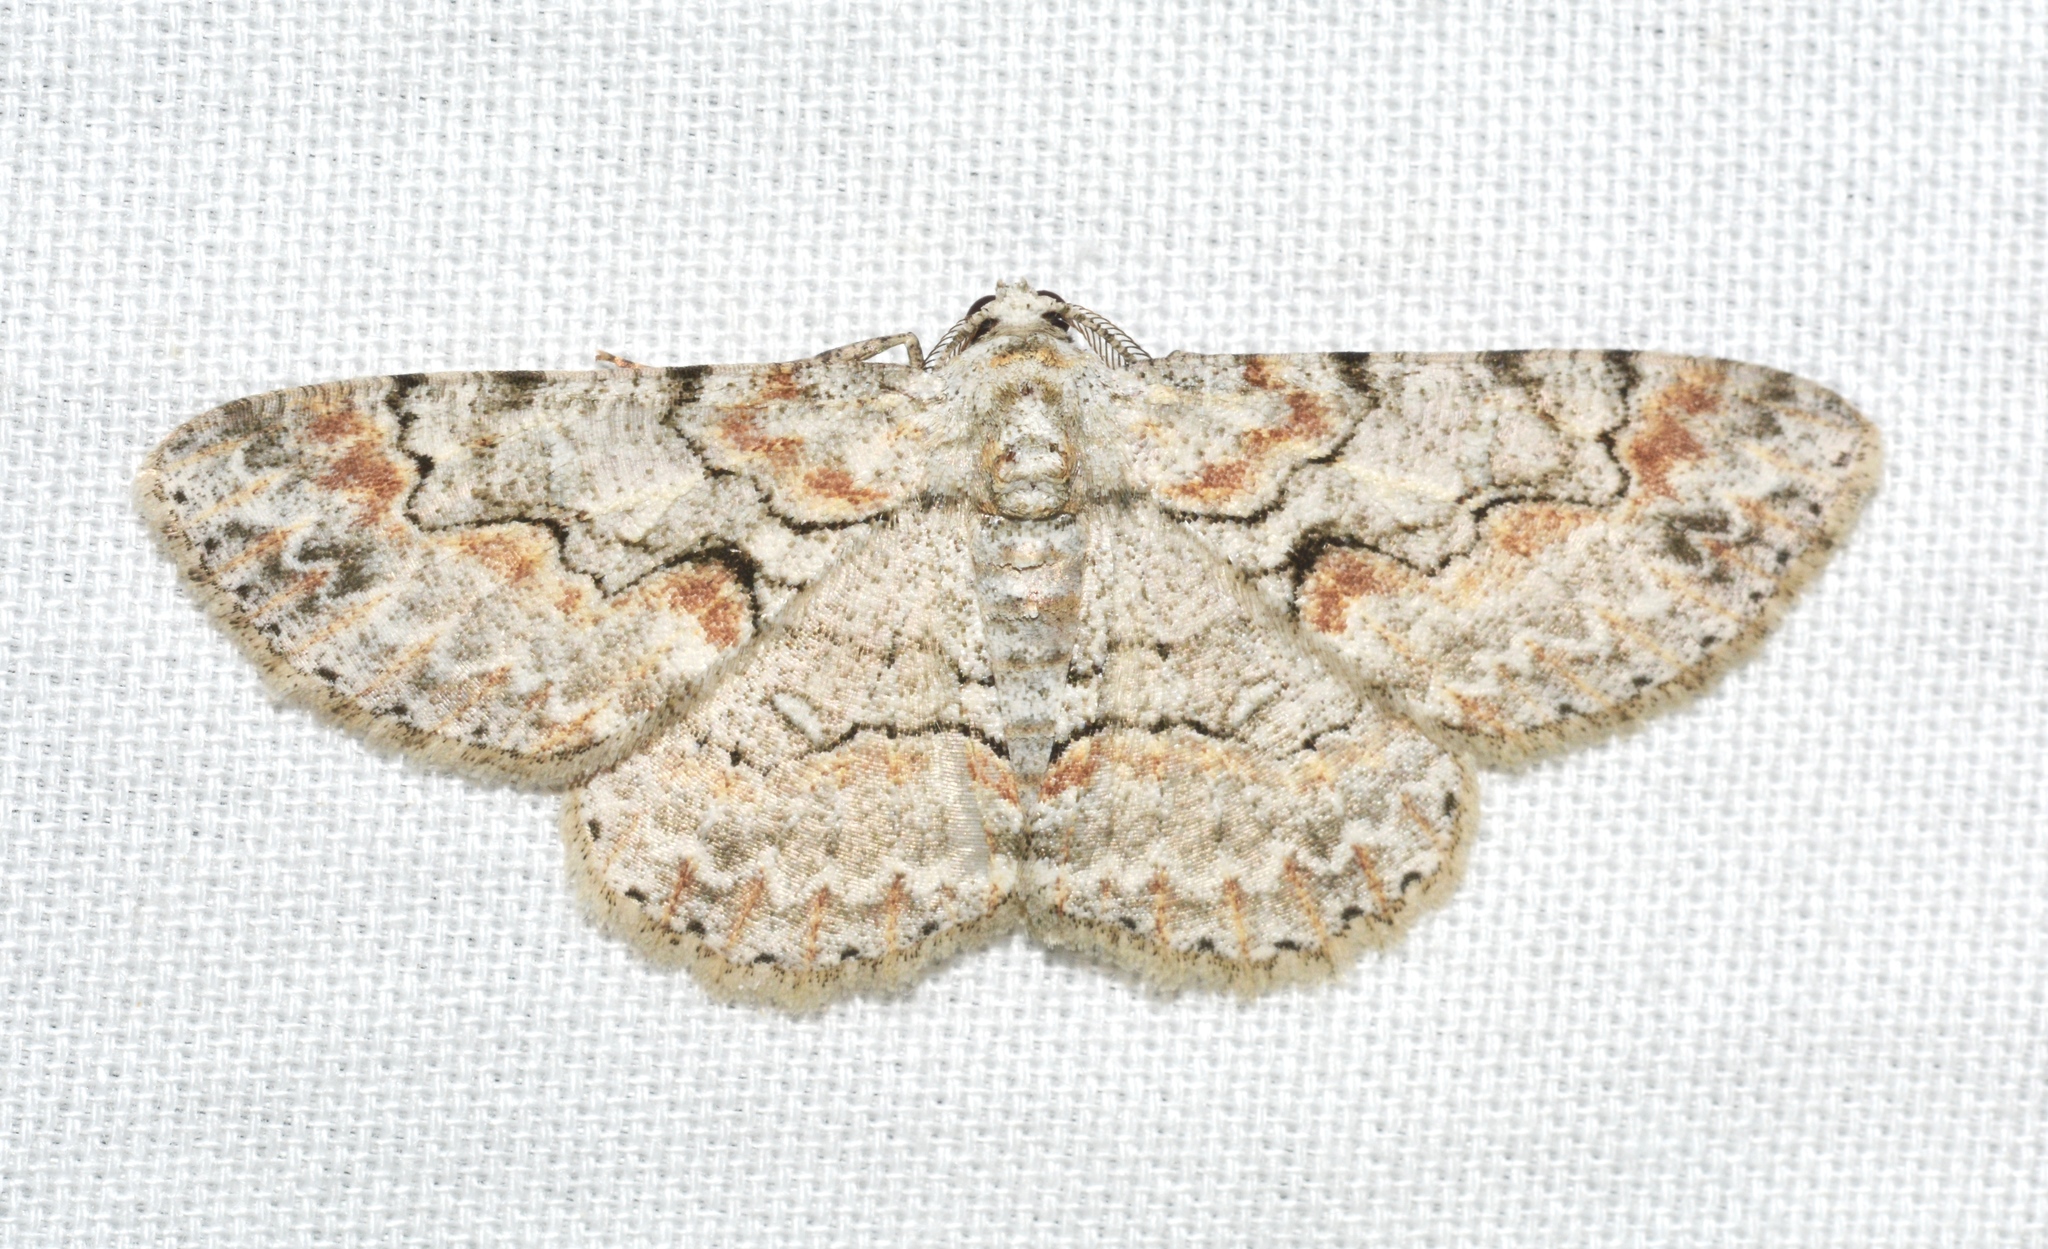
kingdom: Animalia
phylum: Arthropoda
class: Insecta
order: Lepidoptera
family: Geometridae
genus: Iridopsis
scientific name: Iridopsis defectaria
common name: Brown-shaded gray
